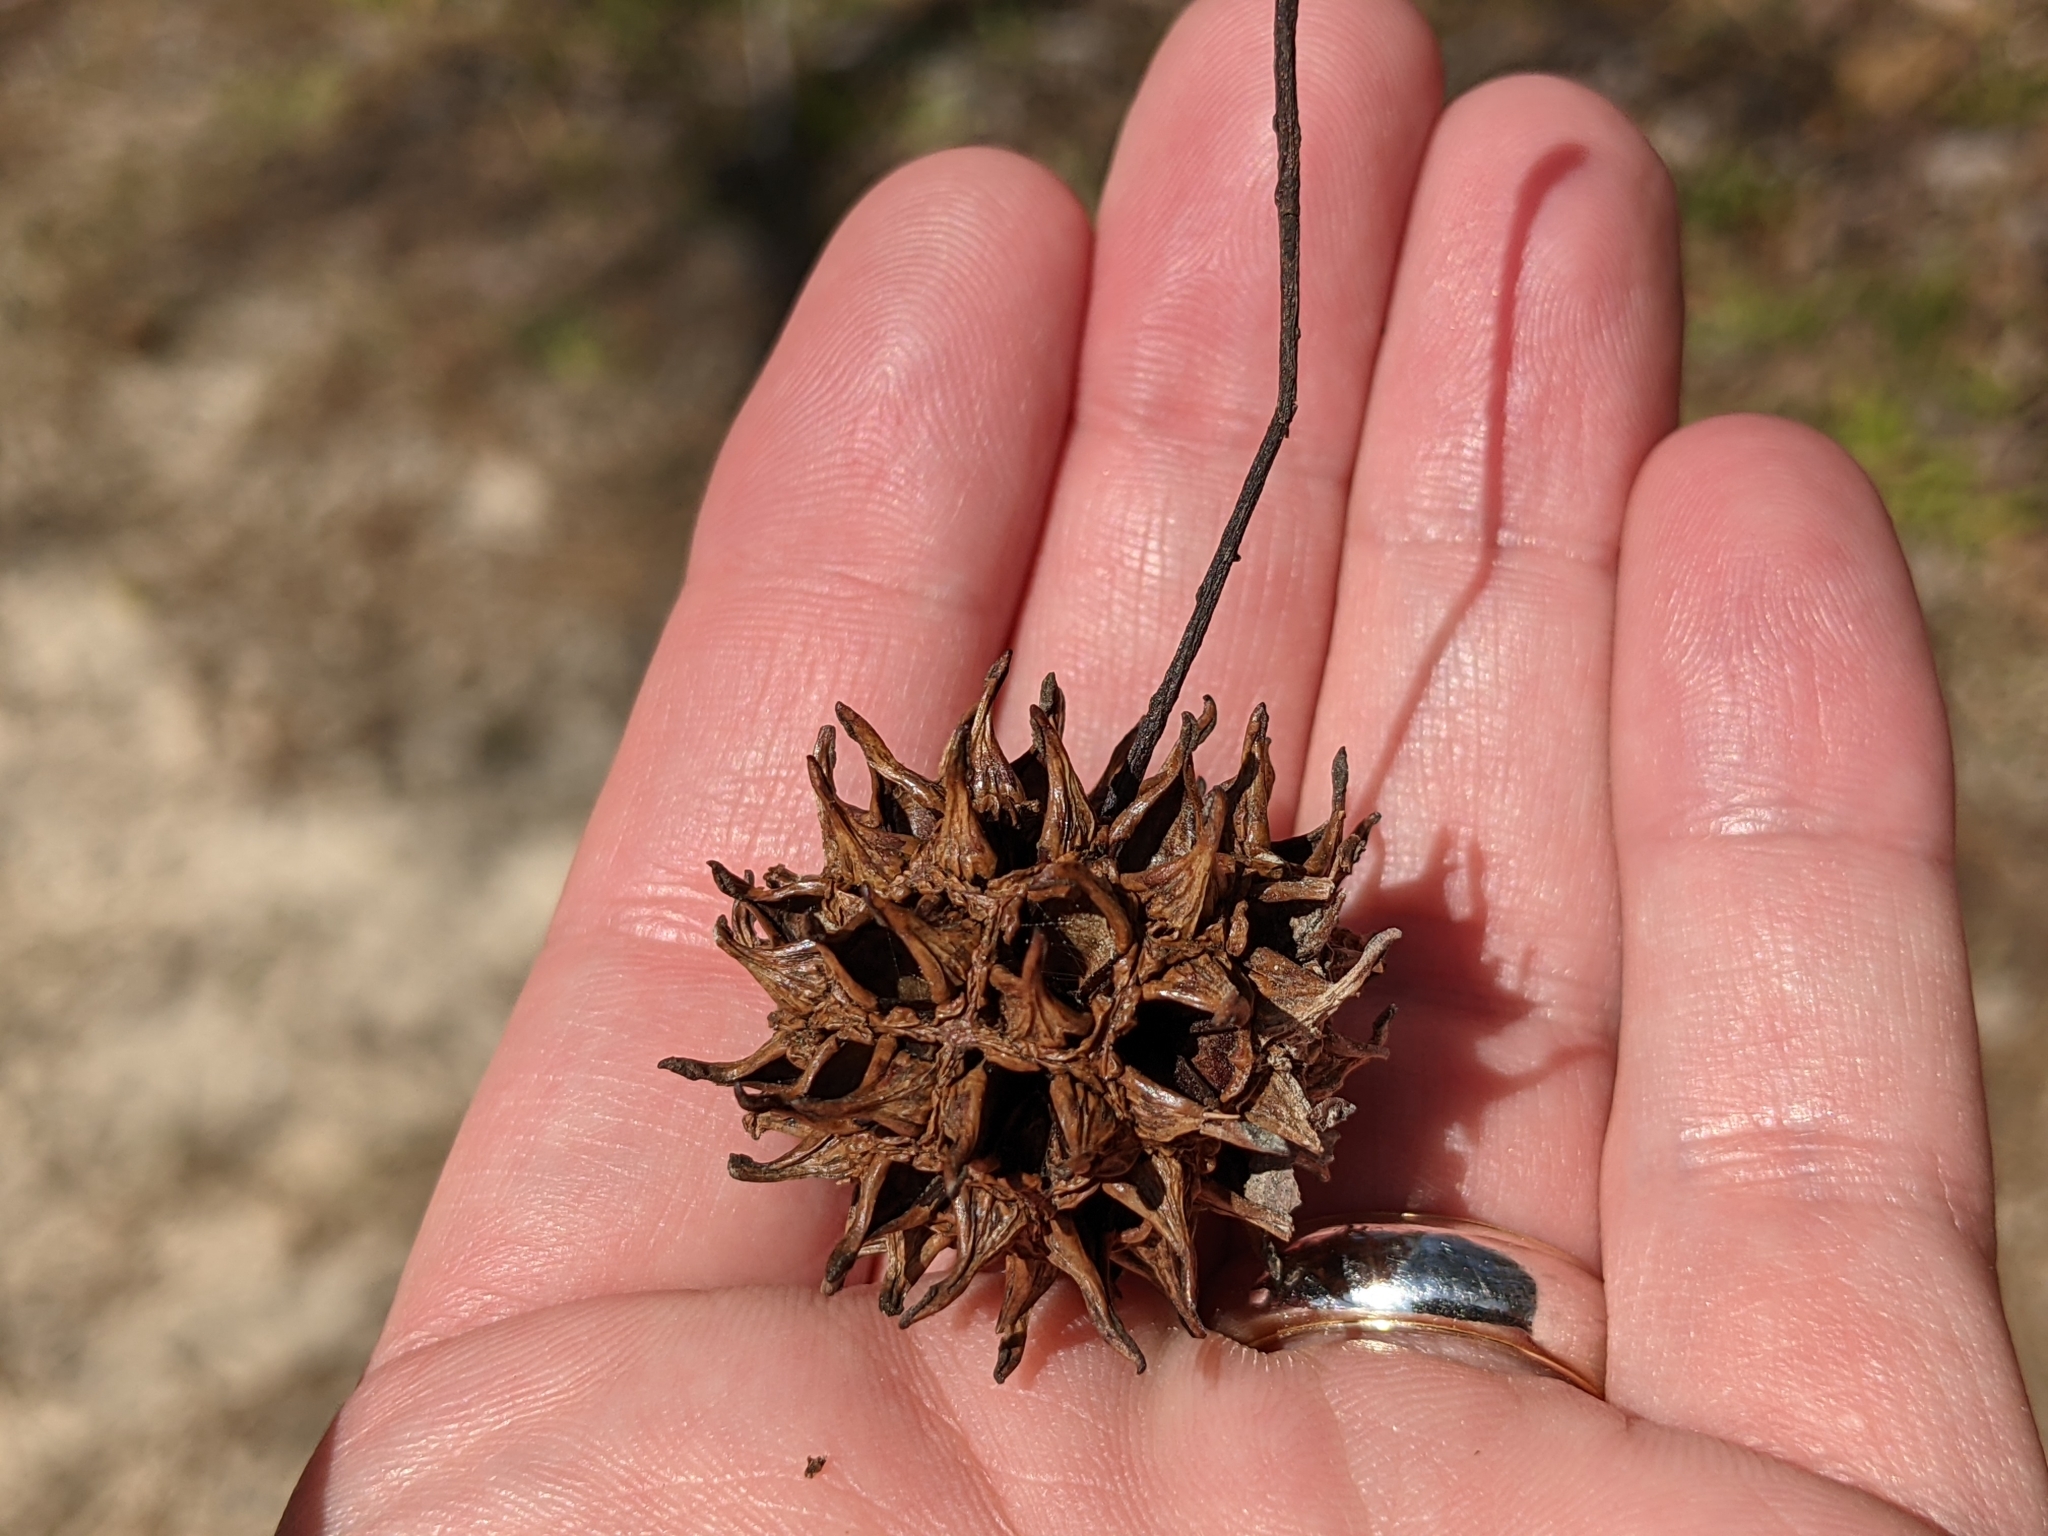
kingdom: Plantae
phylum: Tracheophyta
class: Magnoliopsida
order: Saxifragales
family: Altingiaceae
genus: Liquidambar
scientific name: Liquidambar styraciflua
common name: Sweet gum
